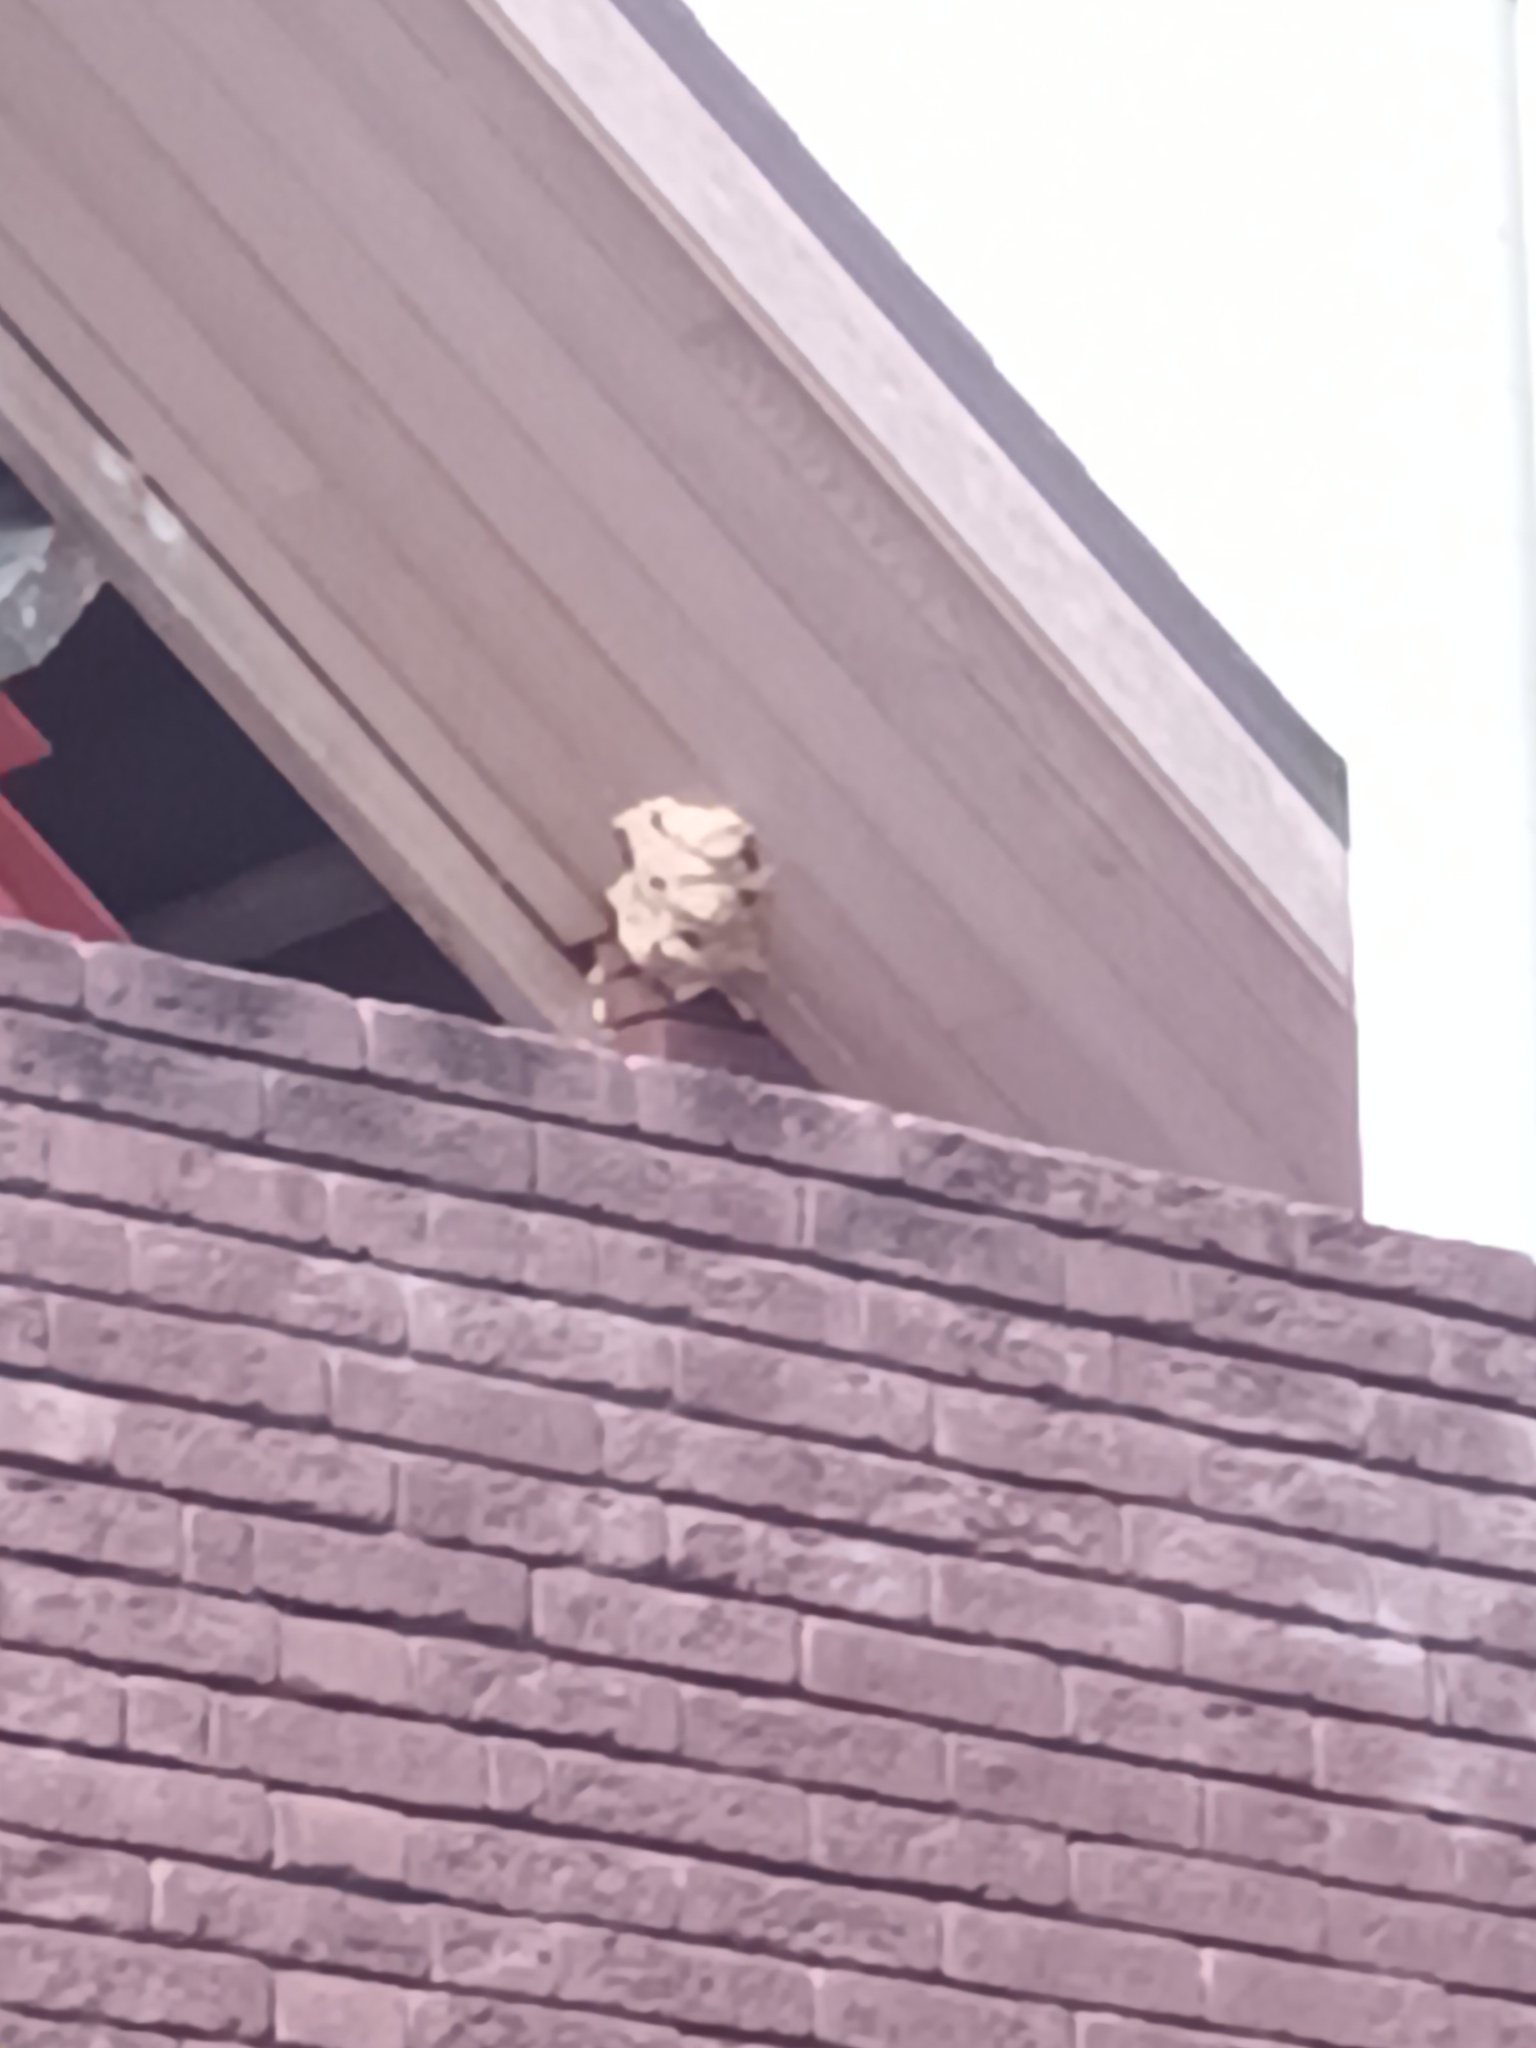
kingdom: Animalia
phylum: Arthropoda
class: Insecta
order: Hymenoptera
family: Vespidae
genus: Vespa
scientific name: Vespa velutina
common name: Asian hornet
